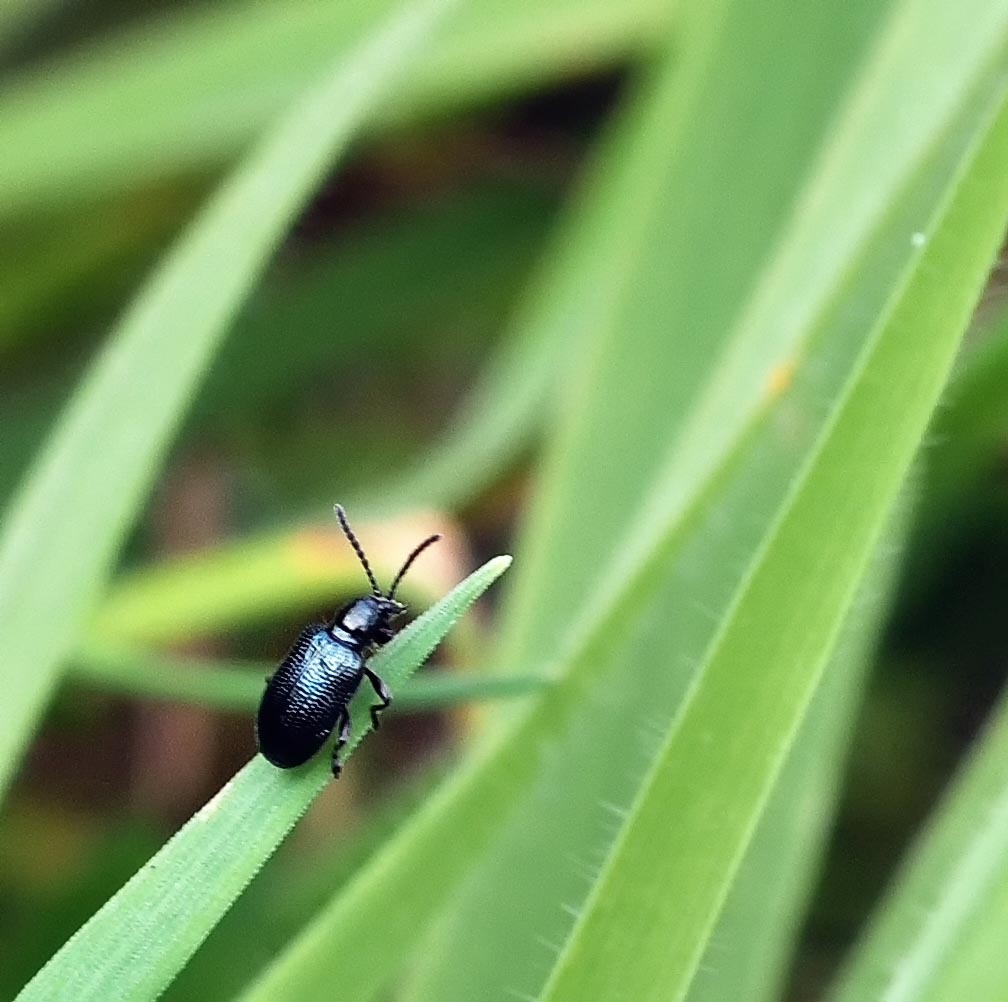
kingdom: Animalia
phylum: Arthropoda
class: Insecta
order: Coleoptera
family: Chrysomelidae
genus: Oulema
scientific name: Oulema gallaeciana
